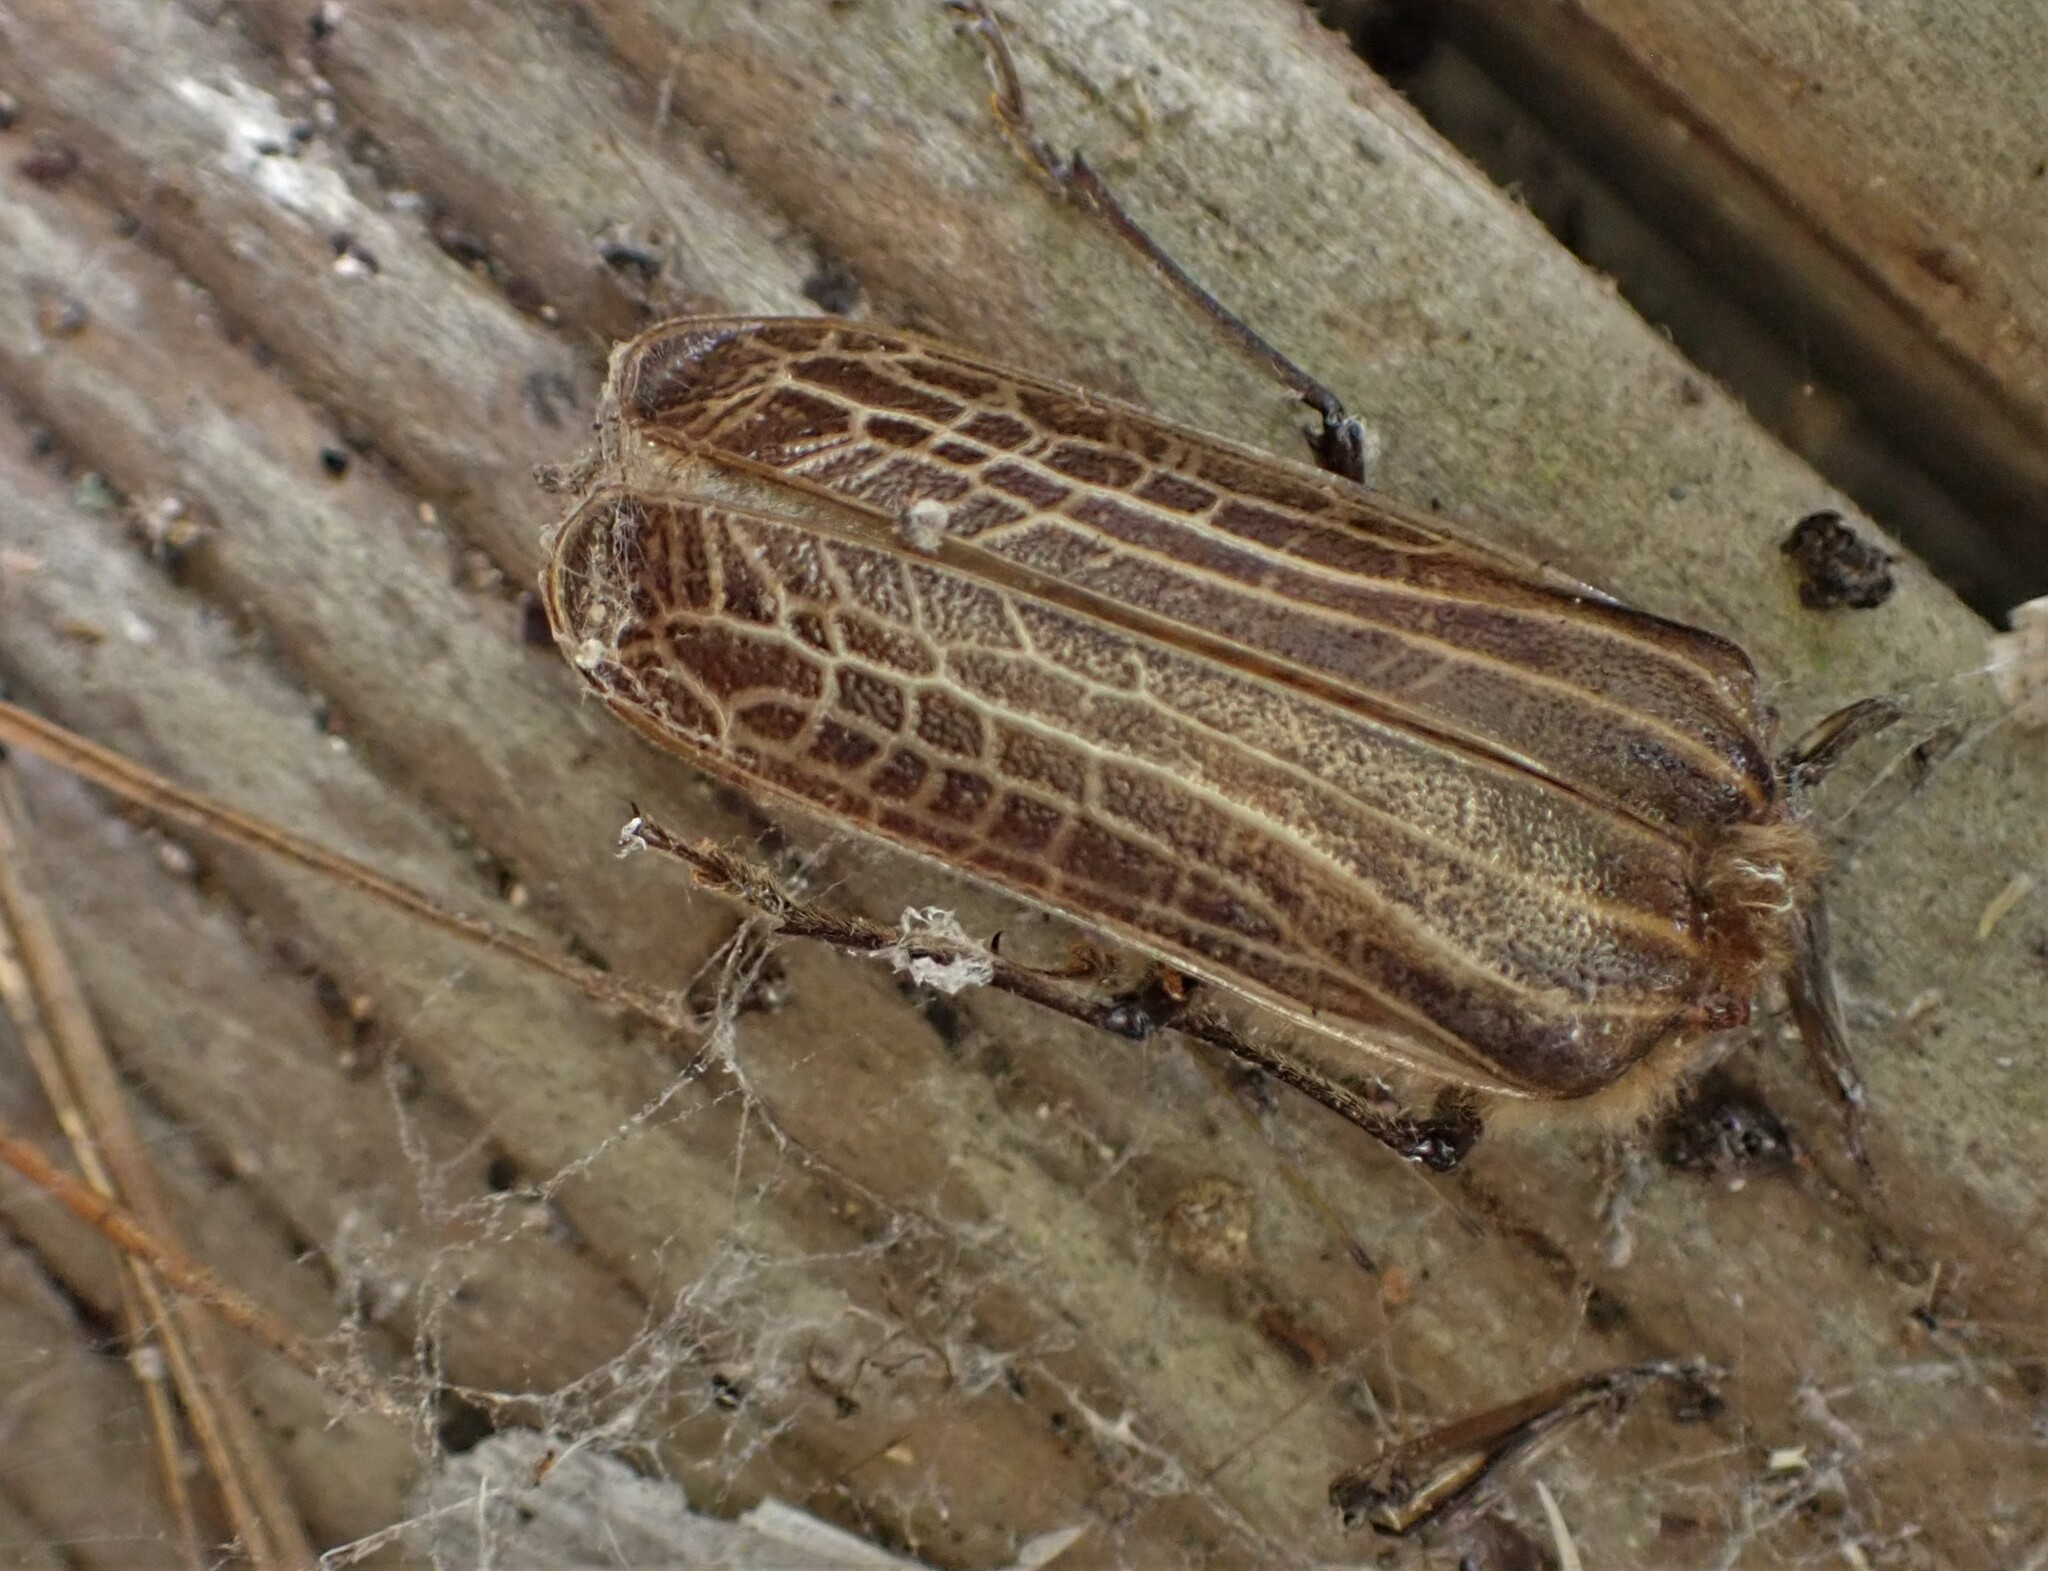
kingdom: Animalia
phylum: Arthropoda
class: Insecta
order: Coleoptera
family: Cerambycidae
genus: Prionoplus
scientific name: Prionoplus reticularis
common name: Huhu beetle
